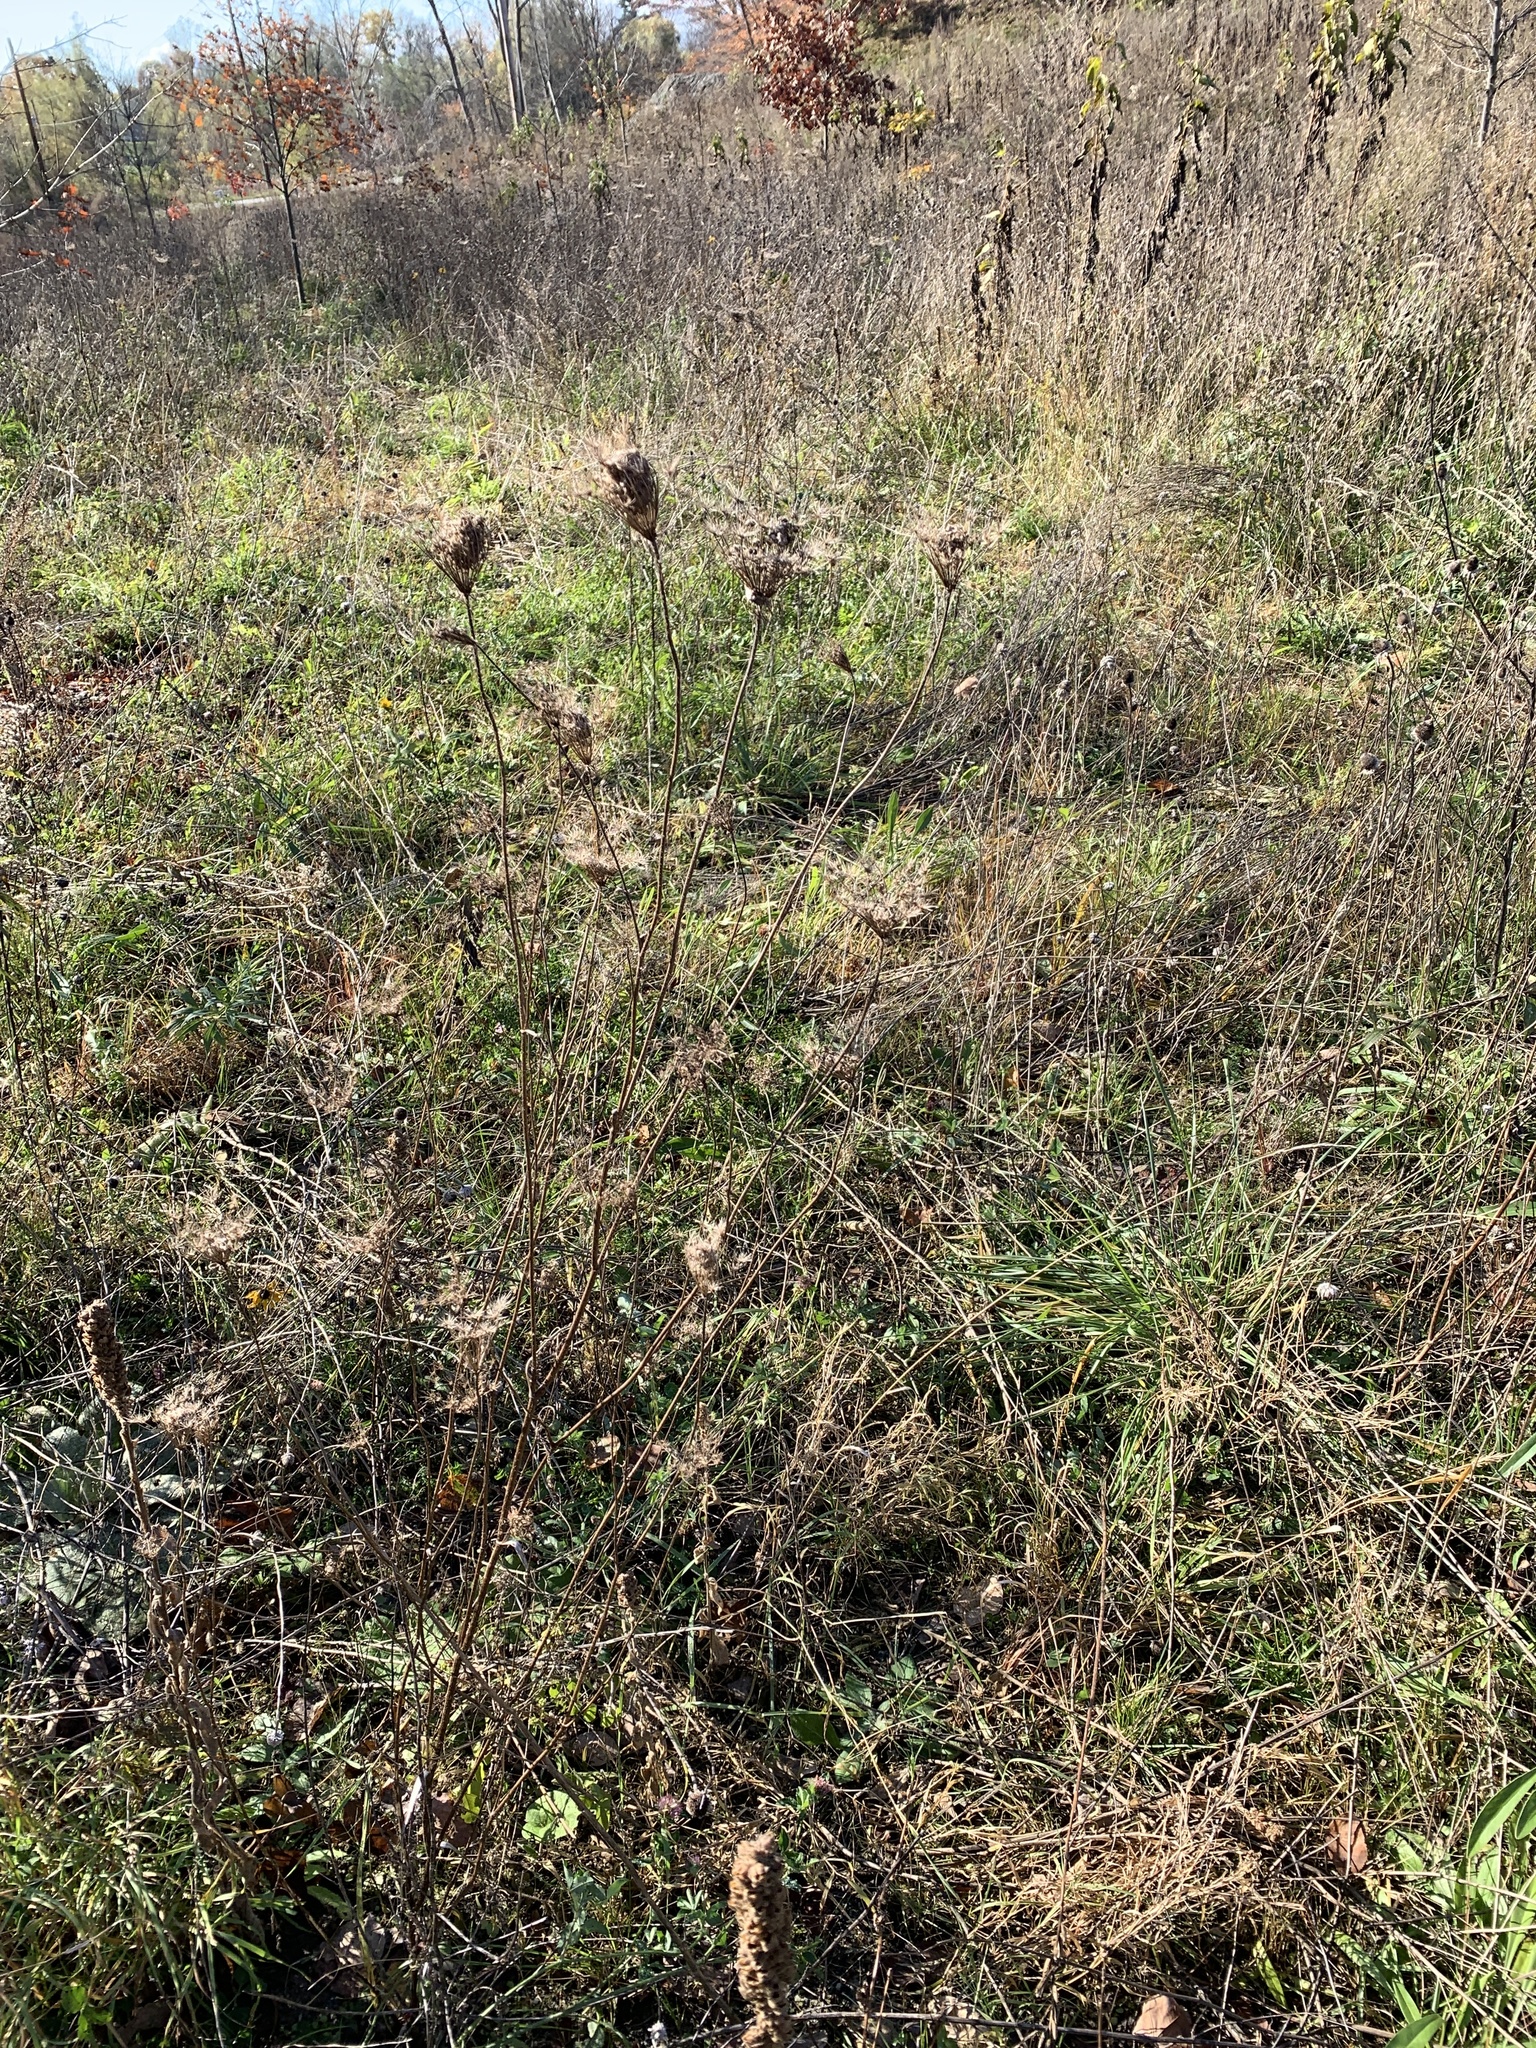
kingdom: Plantae
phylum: Tracheophyta
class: Magnoliopsida
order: Apiales
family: Apiaceae
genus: Daucus
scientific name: Daucus carota
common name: Wild carrot
